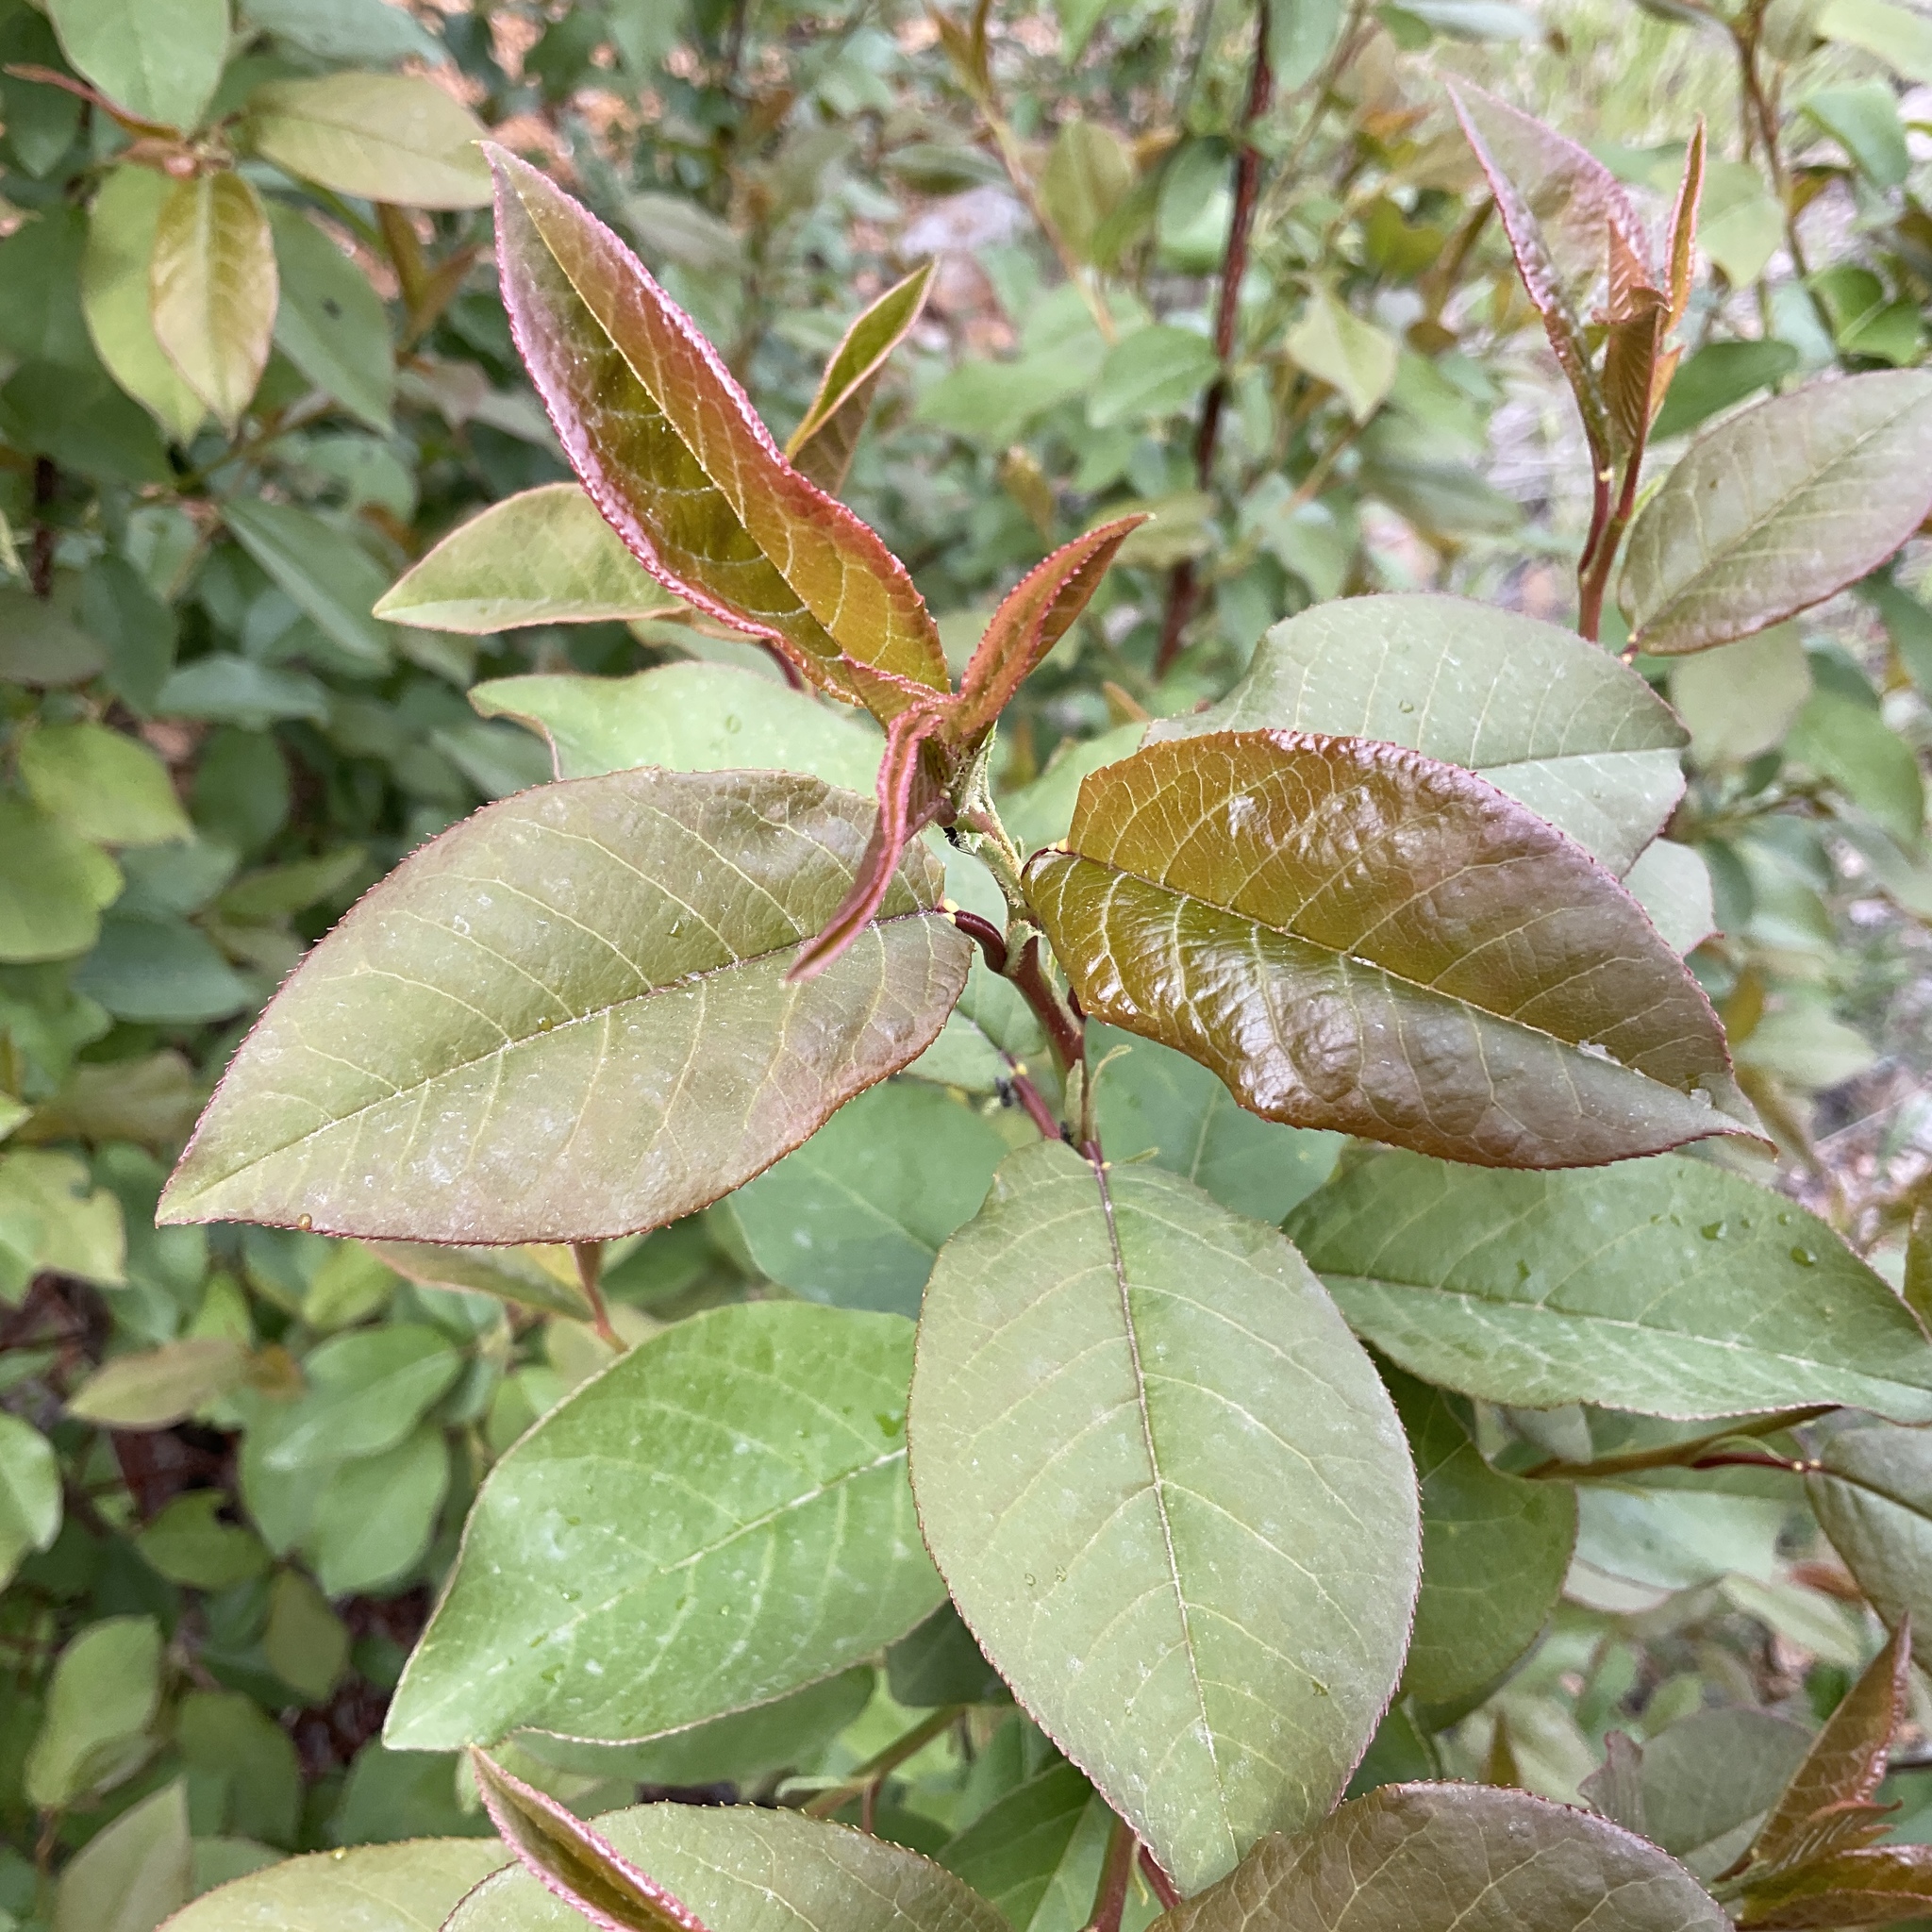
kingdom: Plantae
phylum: Tracheophyta
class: Magnoliopsida
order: Rosales
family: Rosaceae
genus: Prunus
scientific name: Prunus virginiana
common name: Chokecherry
